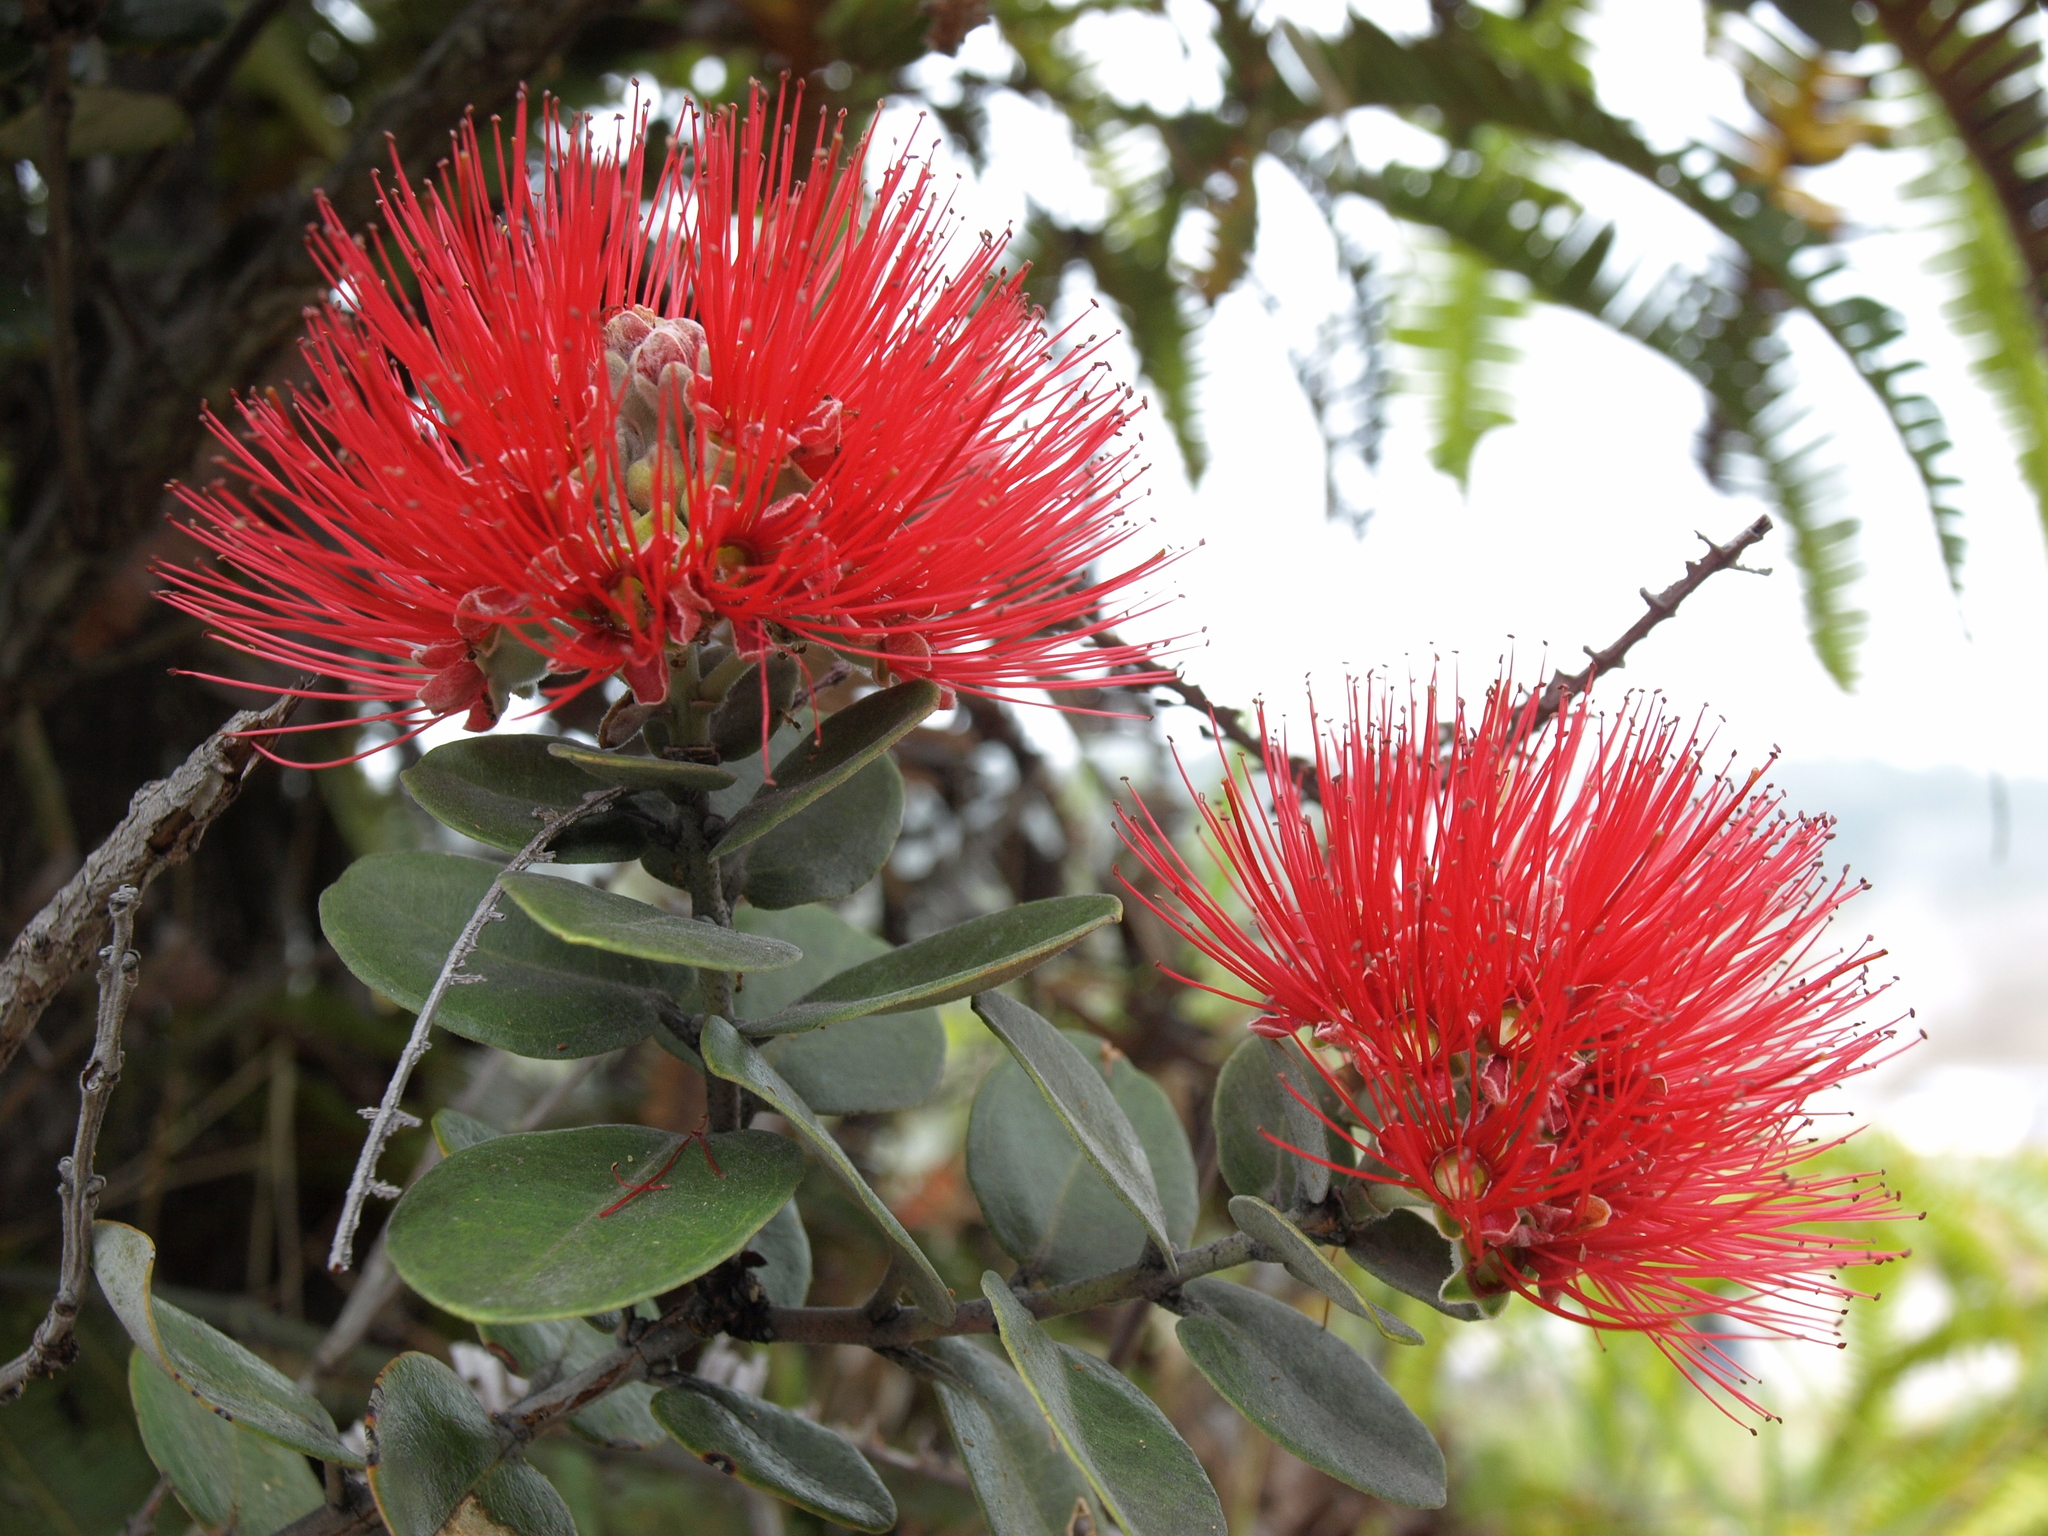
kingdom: Plantae
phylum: Tracheophyta
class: Magnoliopsida
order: Myrtales
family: Myrtaceae
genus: Metrosideros
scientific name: Metrosideros polymorpha
